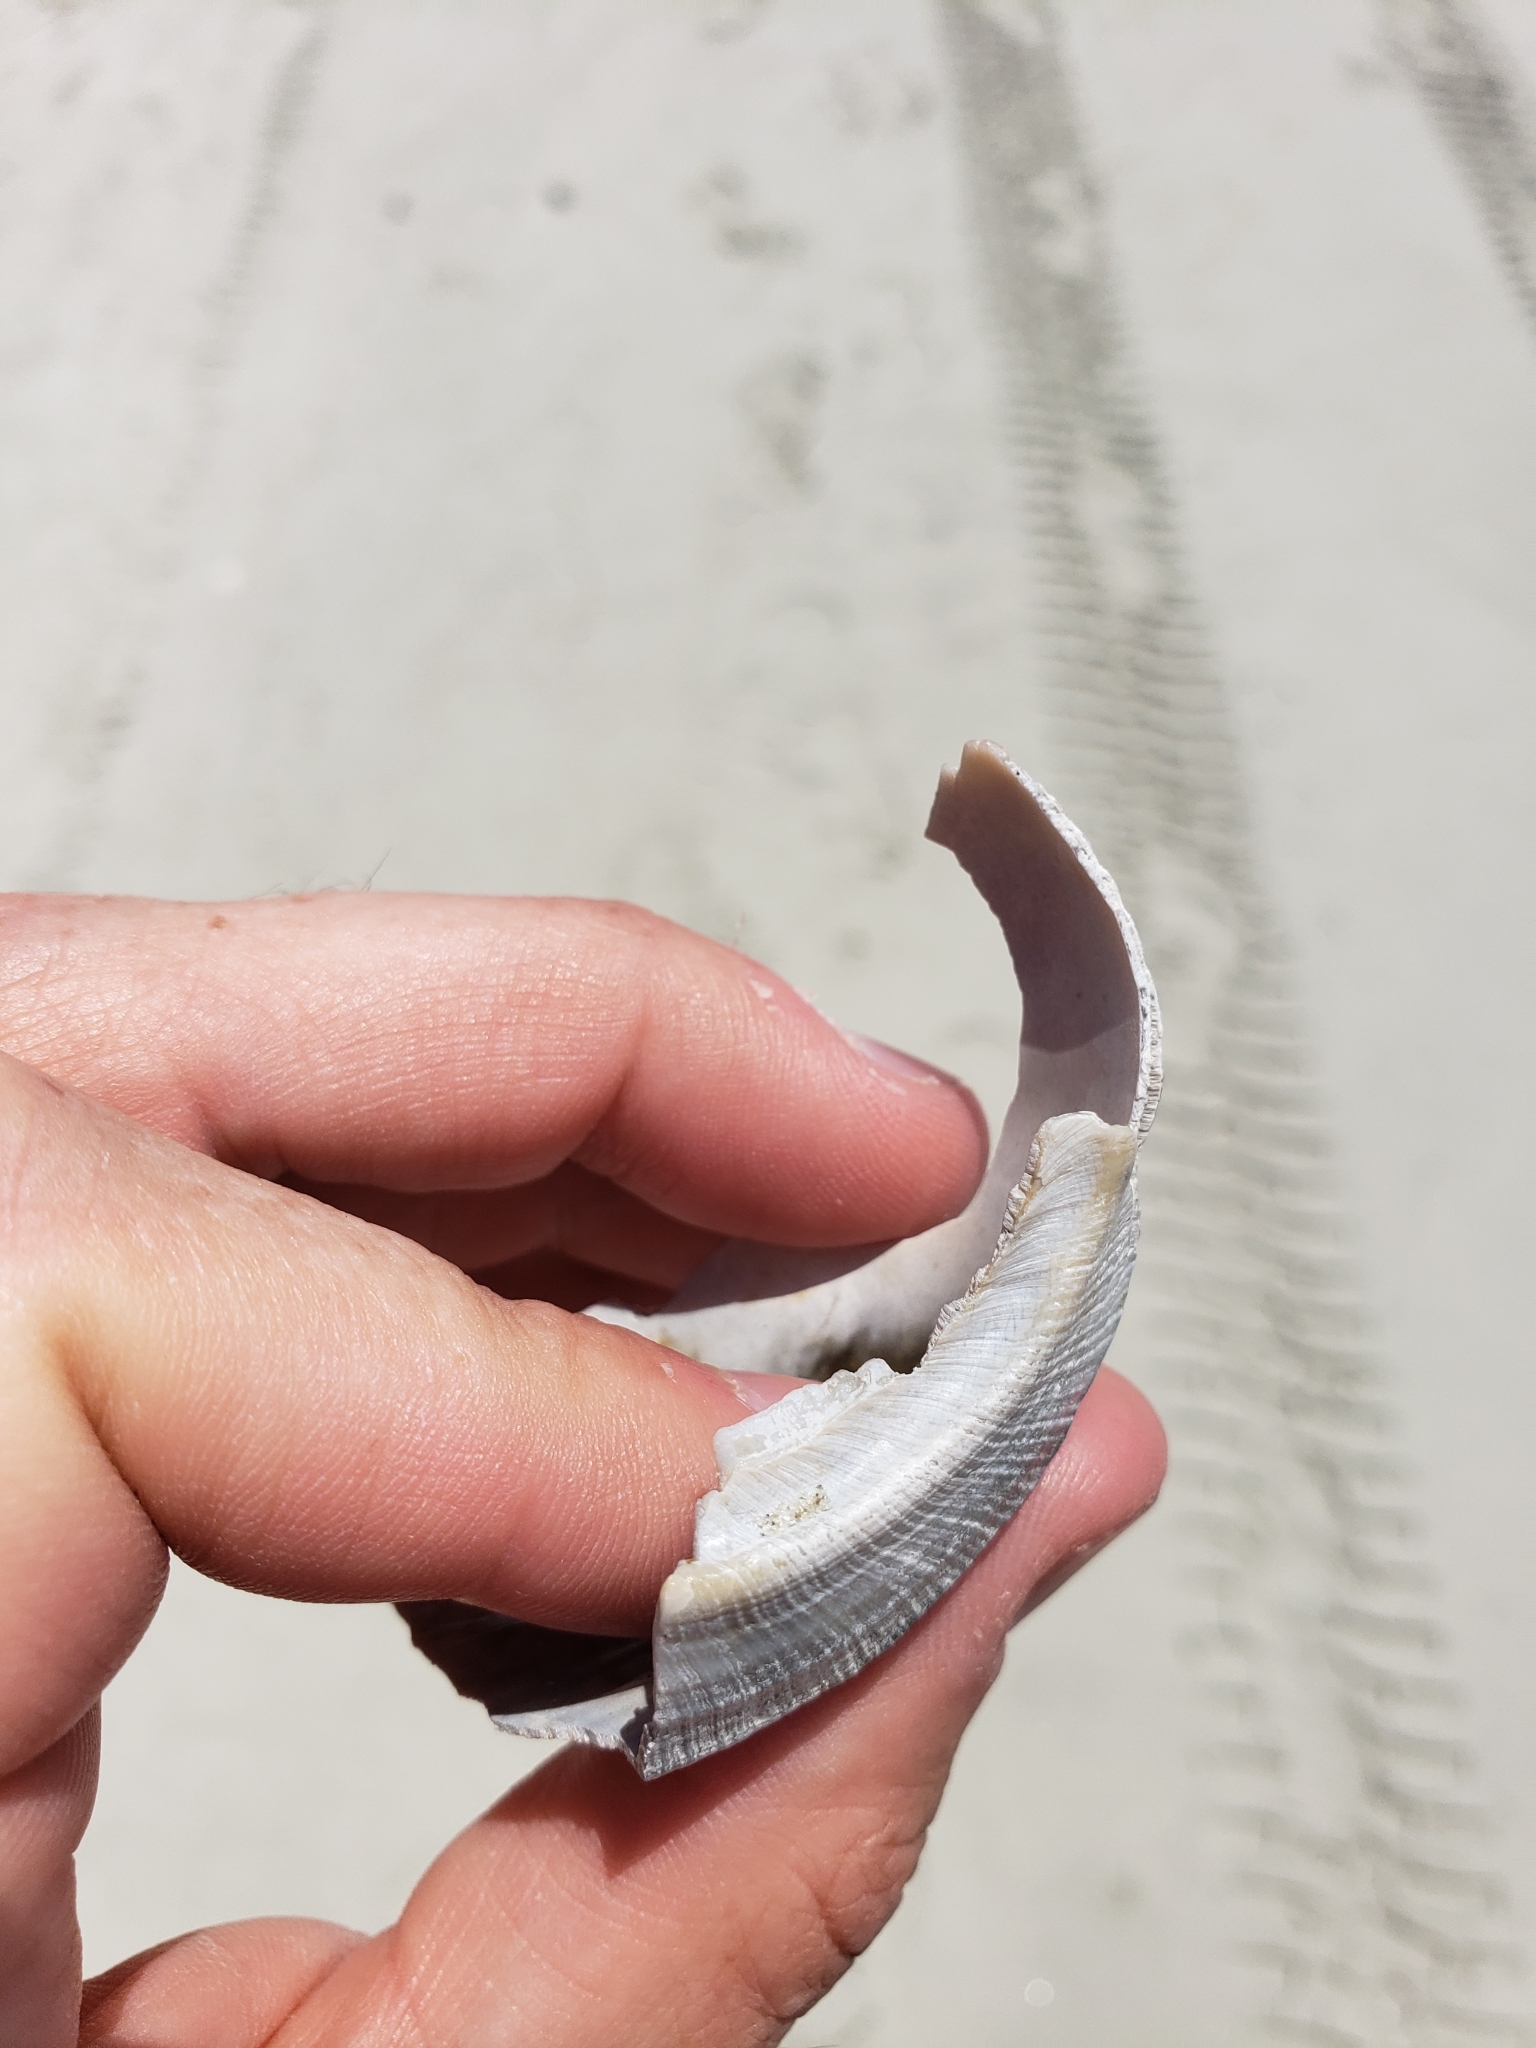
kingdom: Animalia
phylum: Mollusca
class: Gastropoda
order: Neogastropoda
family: Busyconidae
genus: Busycotypus
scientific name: Busycotypus canaliculatus
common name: Channeled whelk
